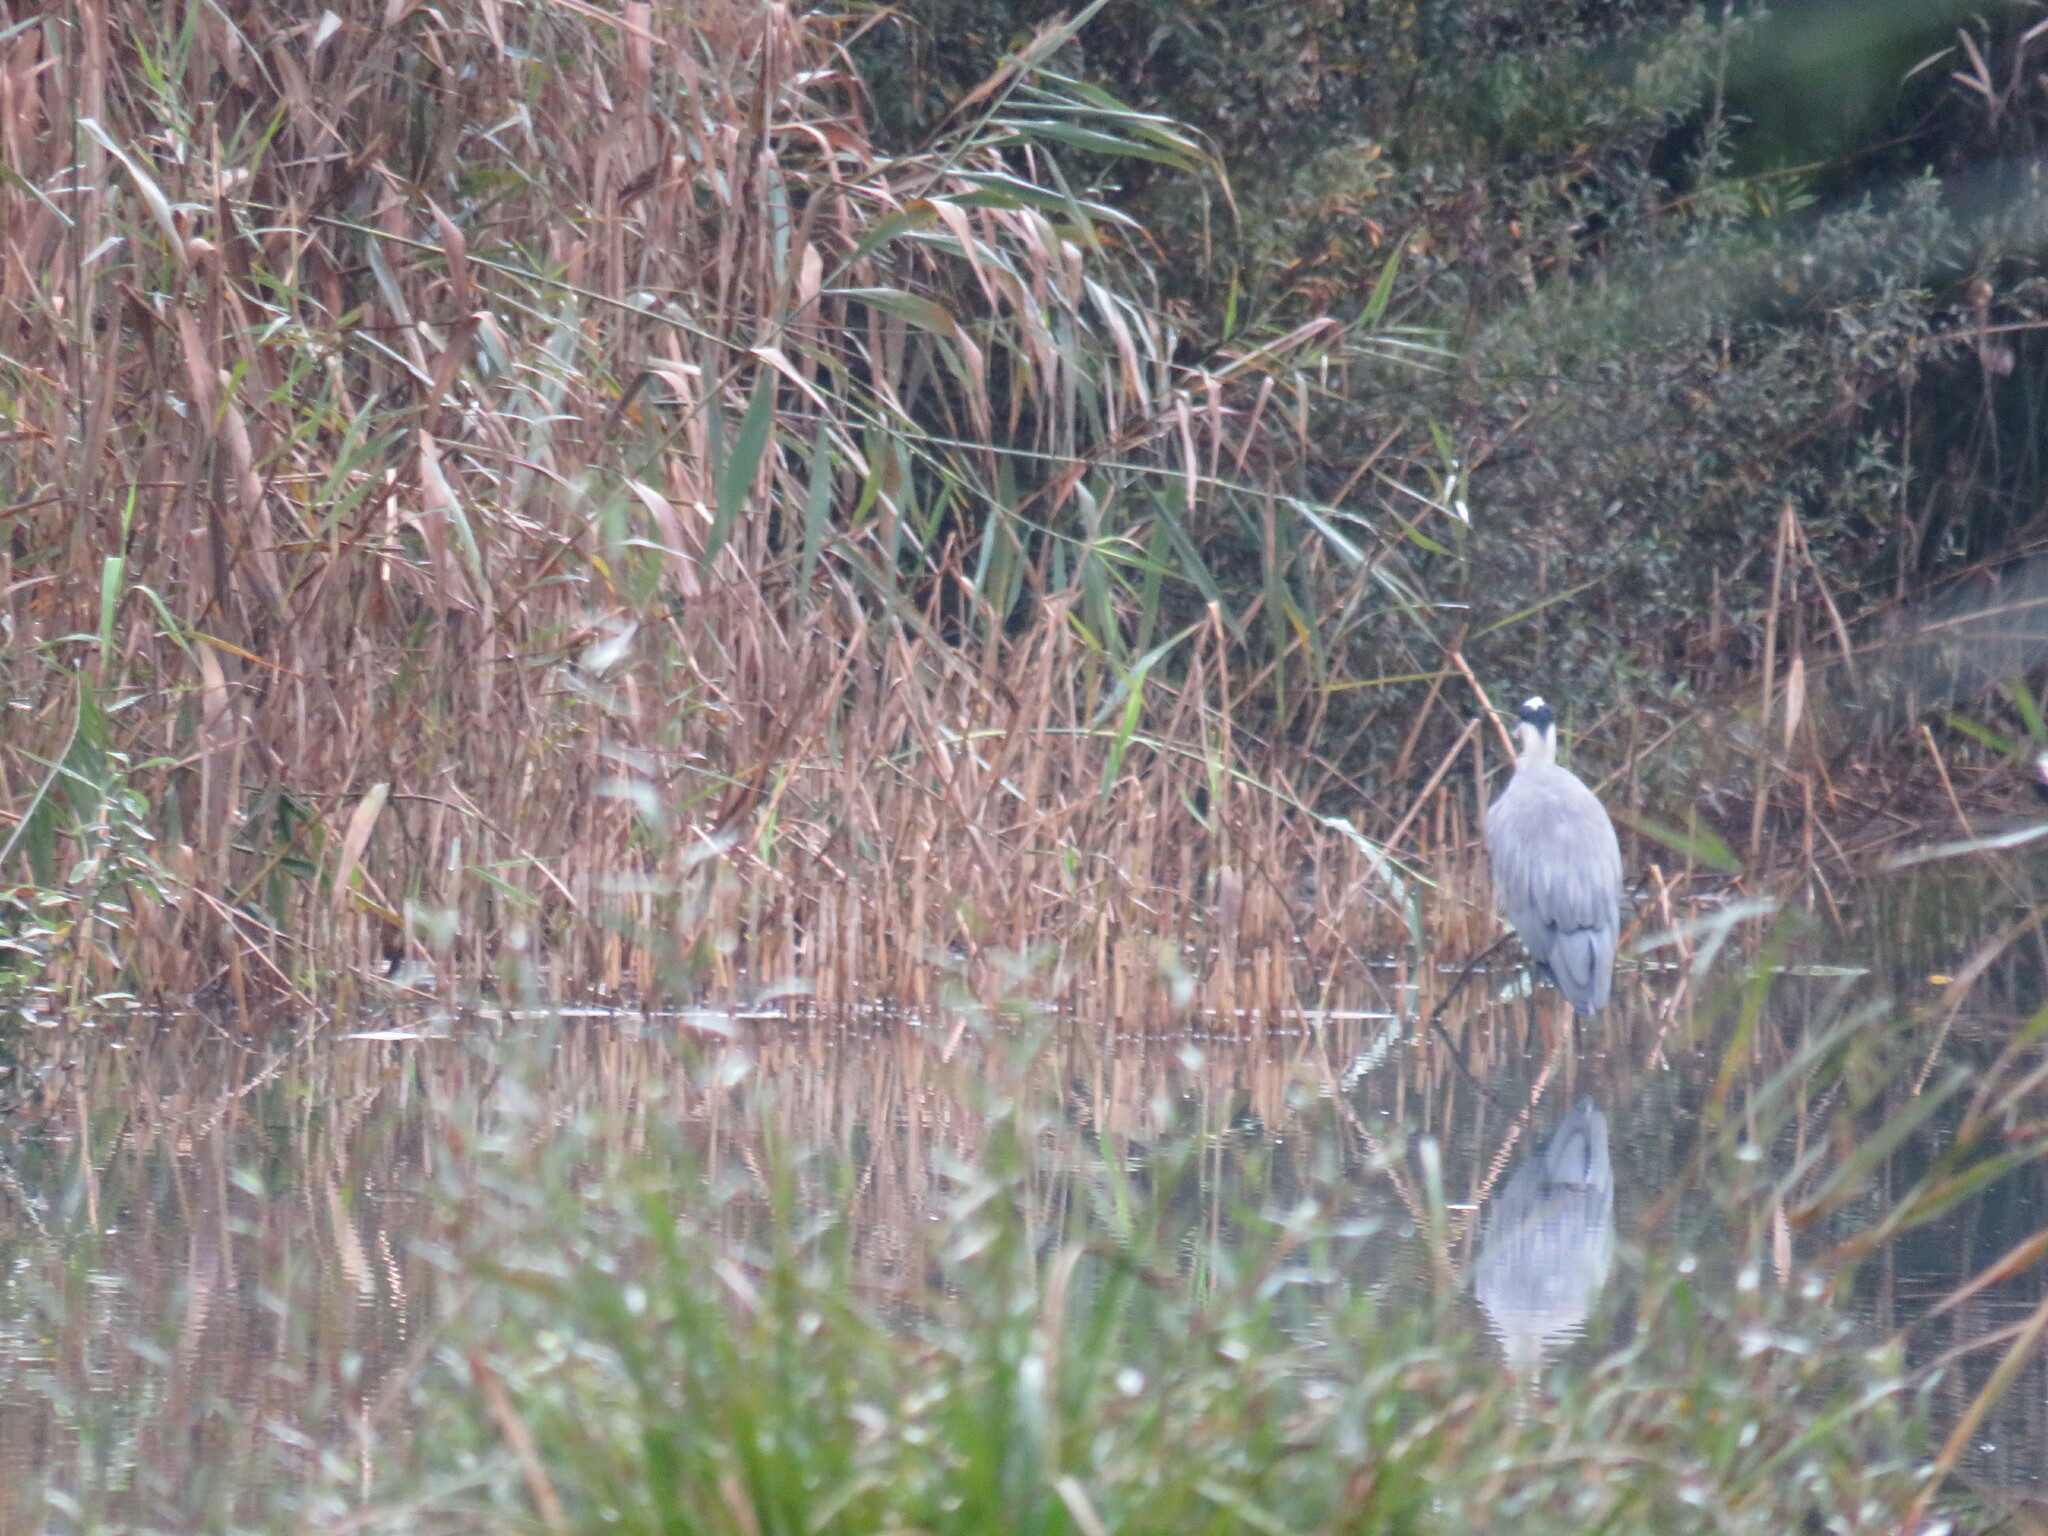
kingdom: Animalia
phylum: Chordata
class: Aves
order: Pelecaniformes
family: Ardeidae
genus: Ardea
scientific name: Ardea cinerea
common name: Grey heron
